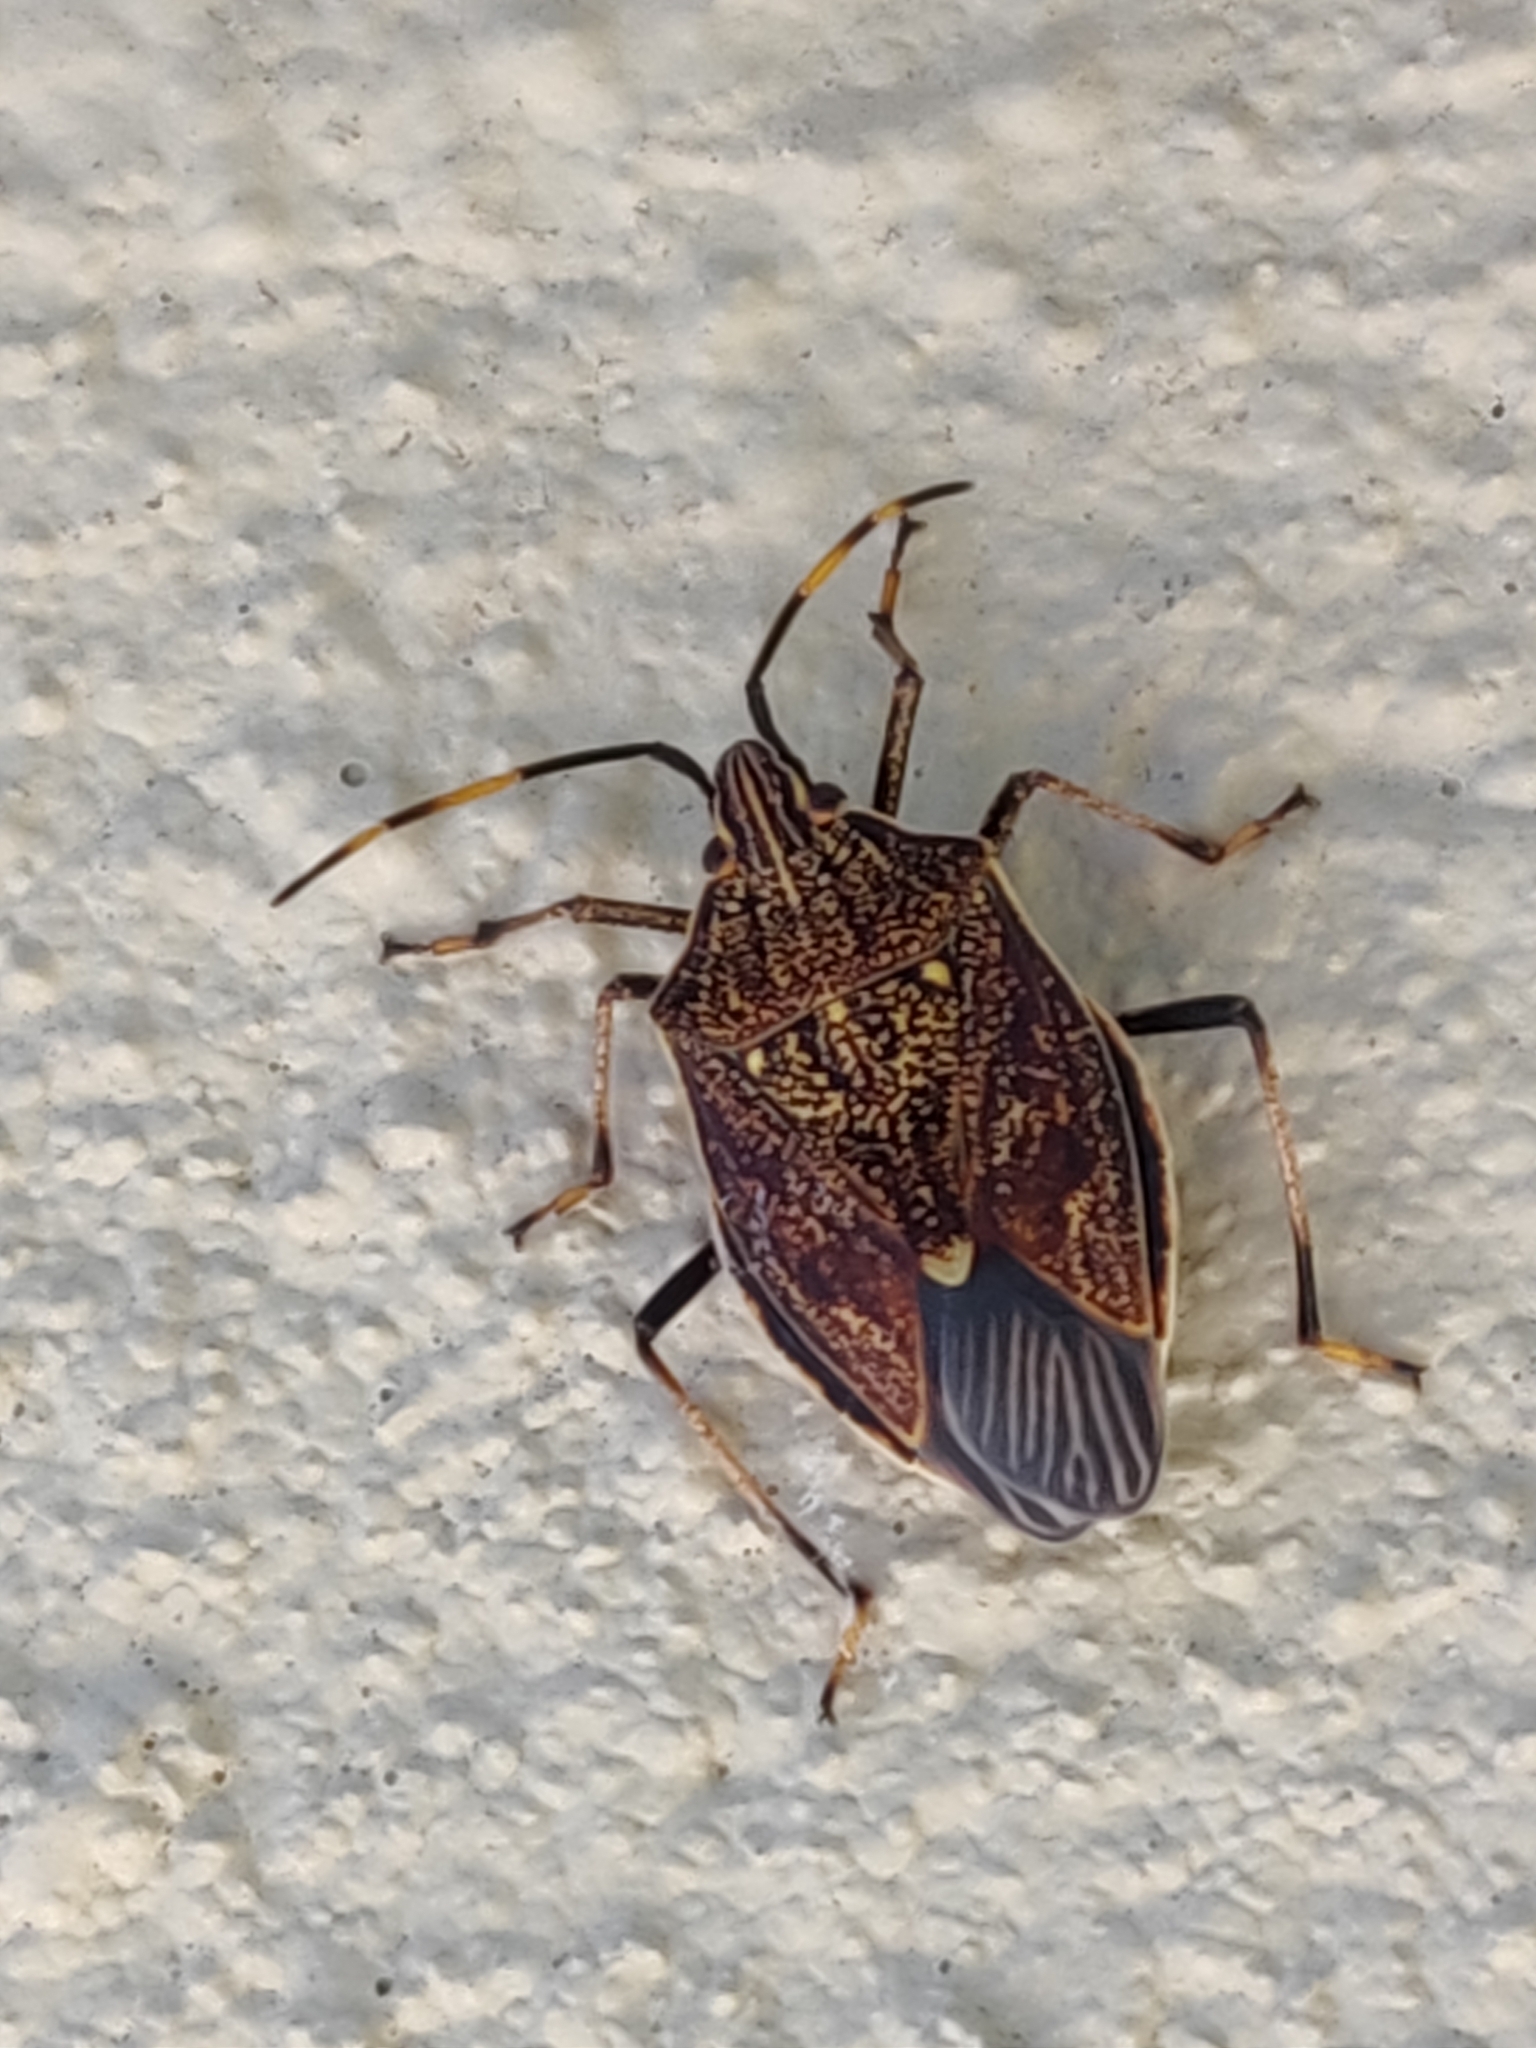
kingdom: Animalia
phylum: Arthropoda
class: Insecta
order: Hemiptera
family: Pentatomidae
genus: Poecilometis
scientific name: Poecilometis
